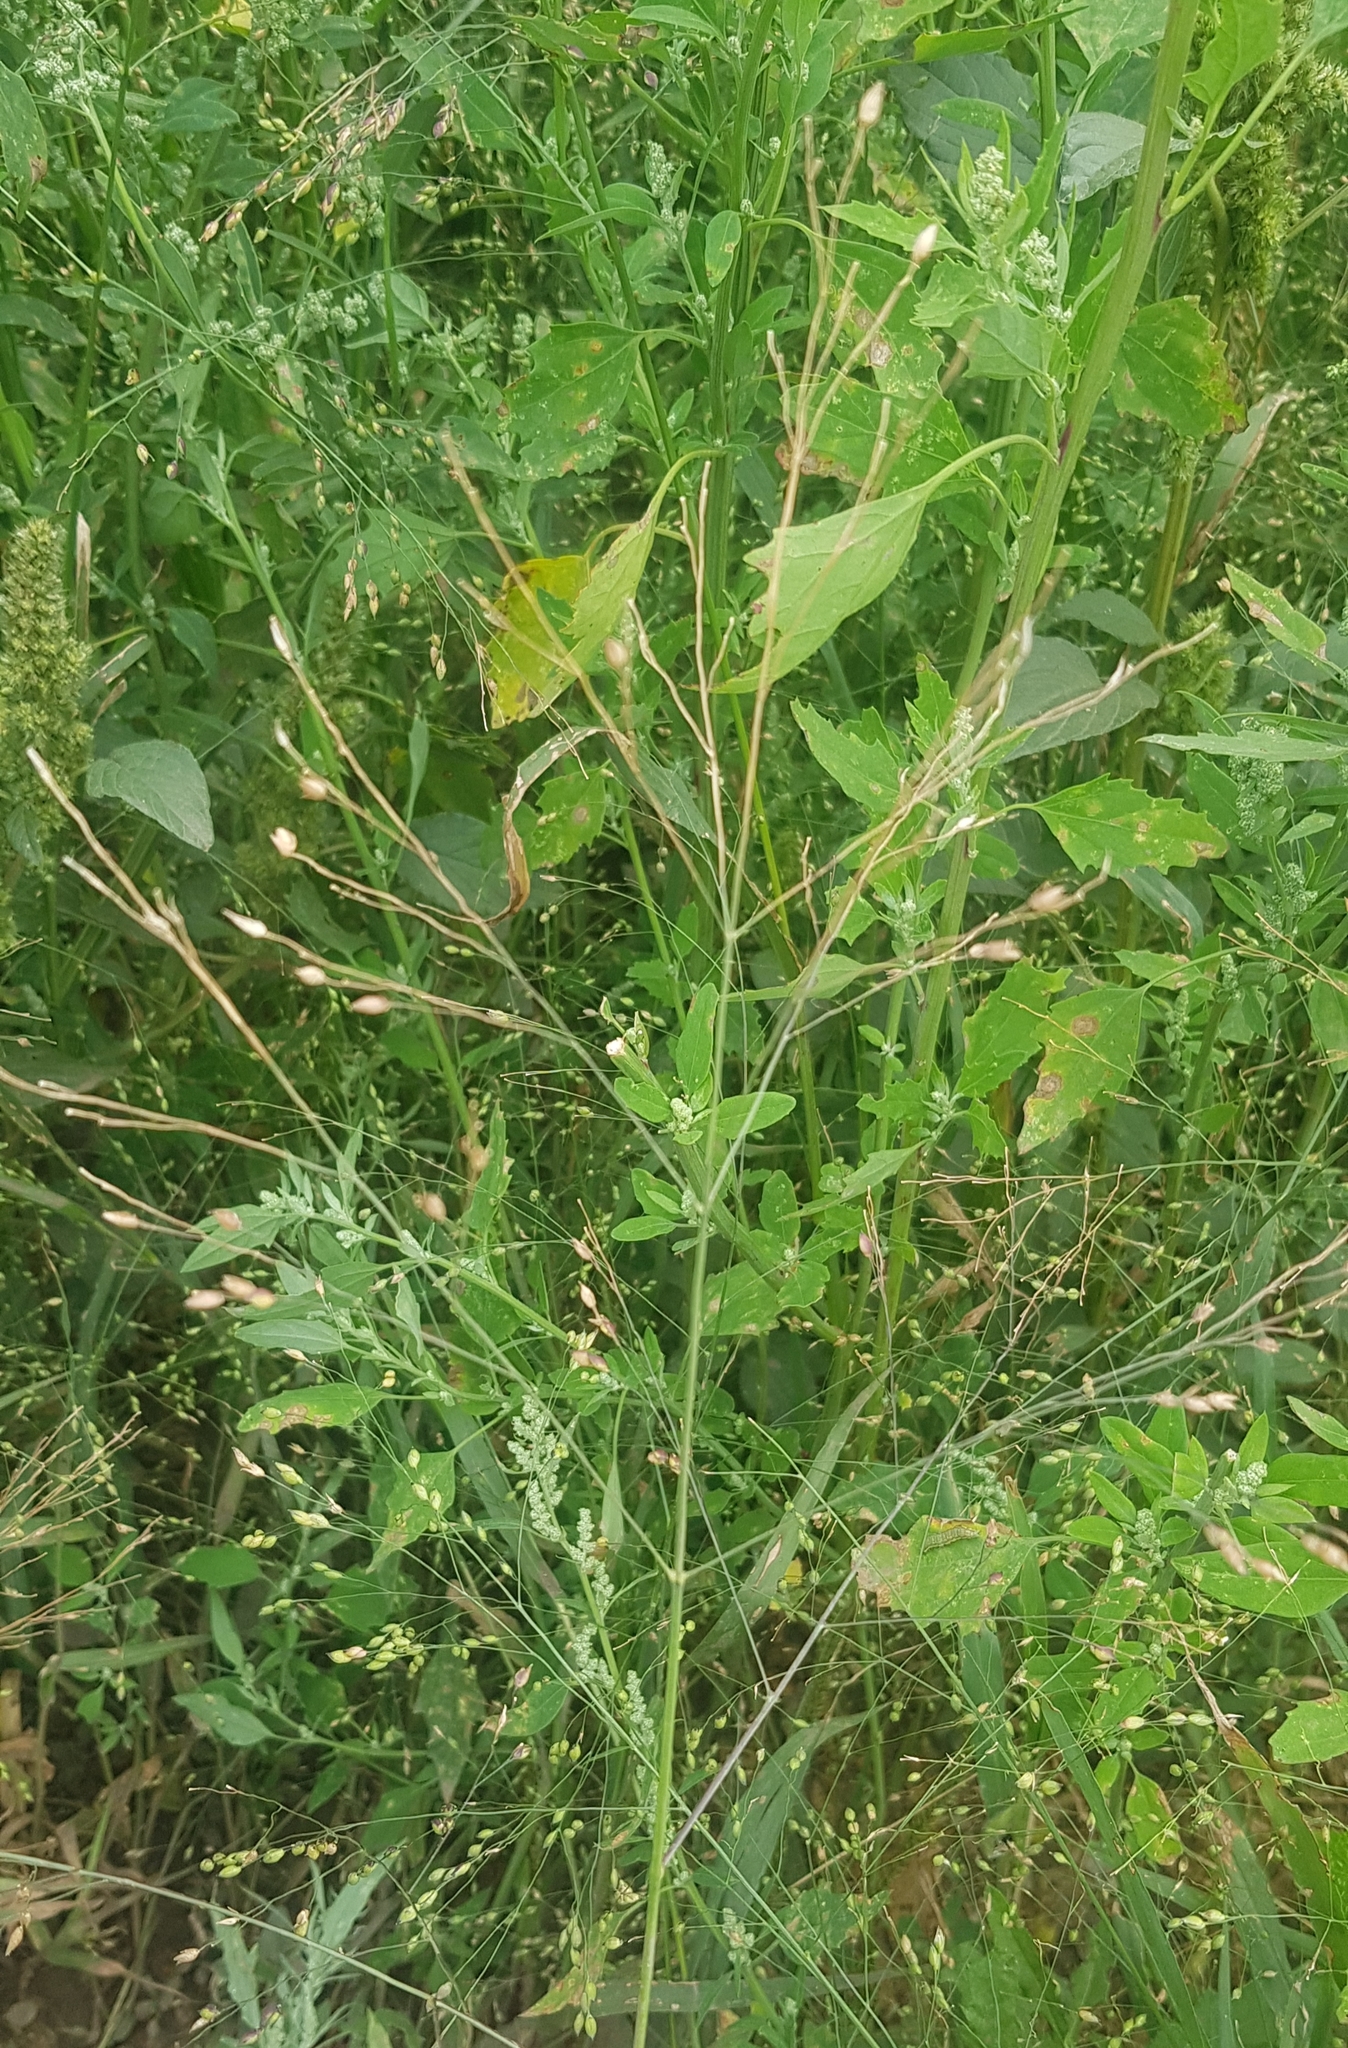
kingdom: Plantae
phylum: Tracheophyta
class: Liliopsida
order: Poales
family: Poaceae
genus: Panicum
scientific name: Panicum miliaceum
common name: Common millet
